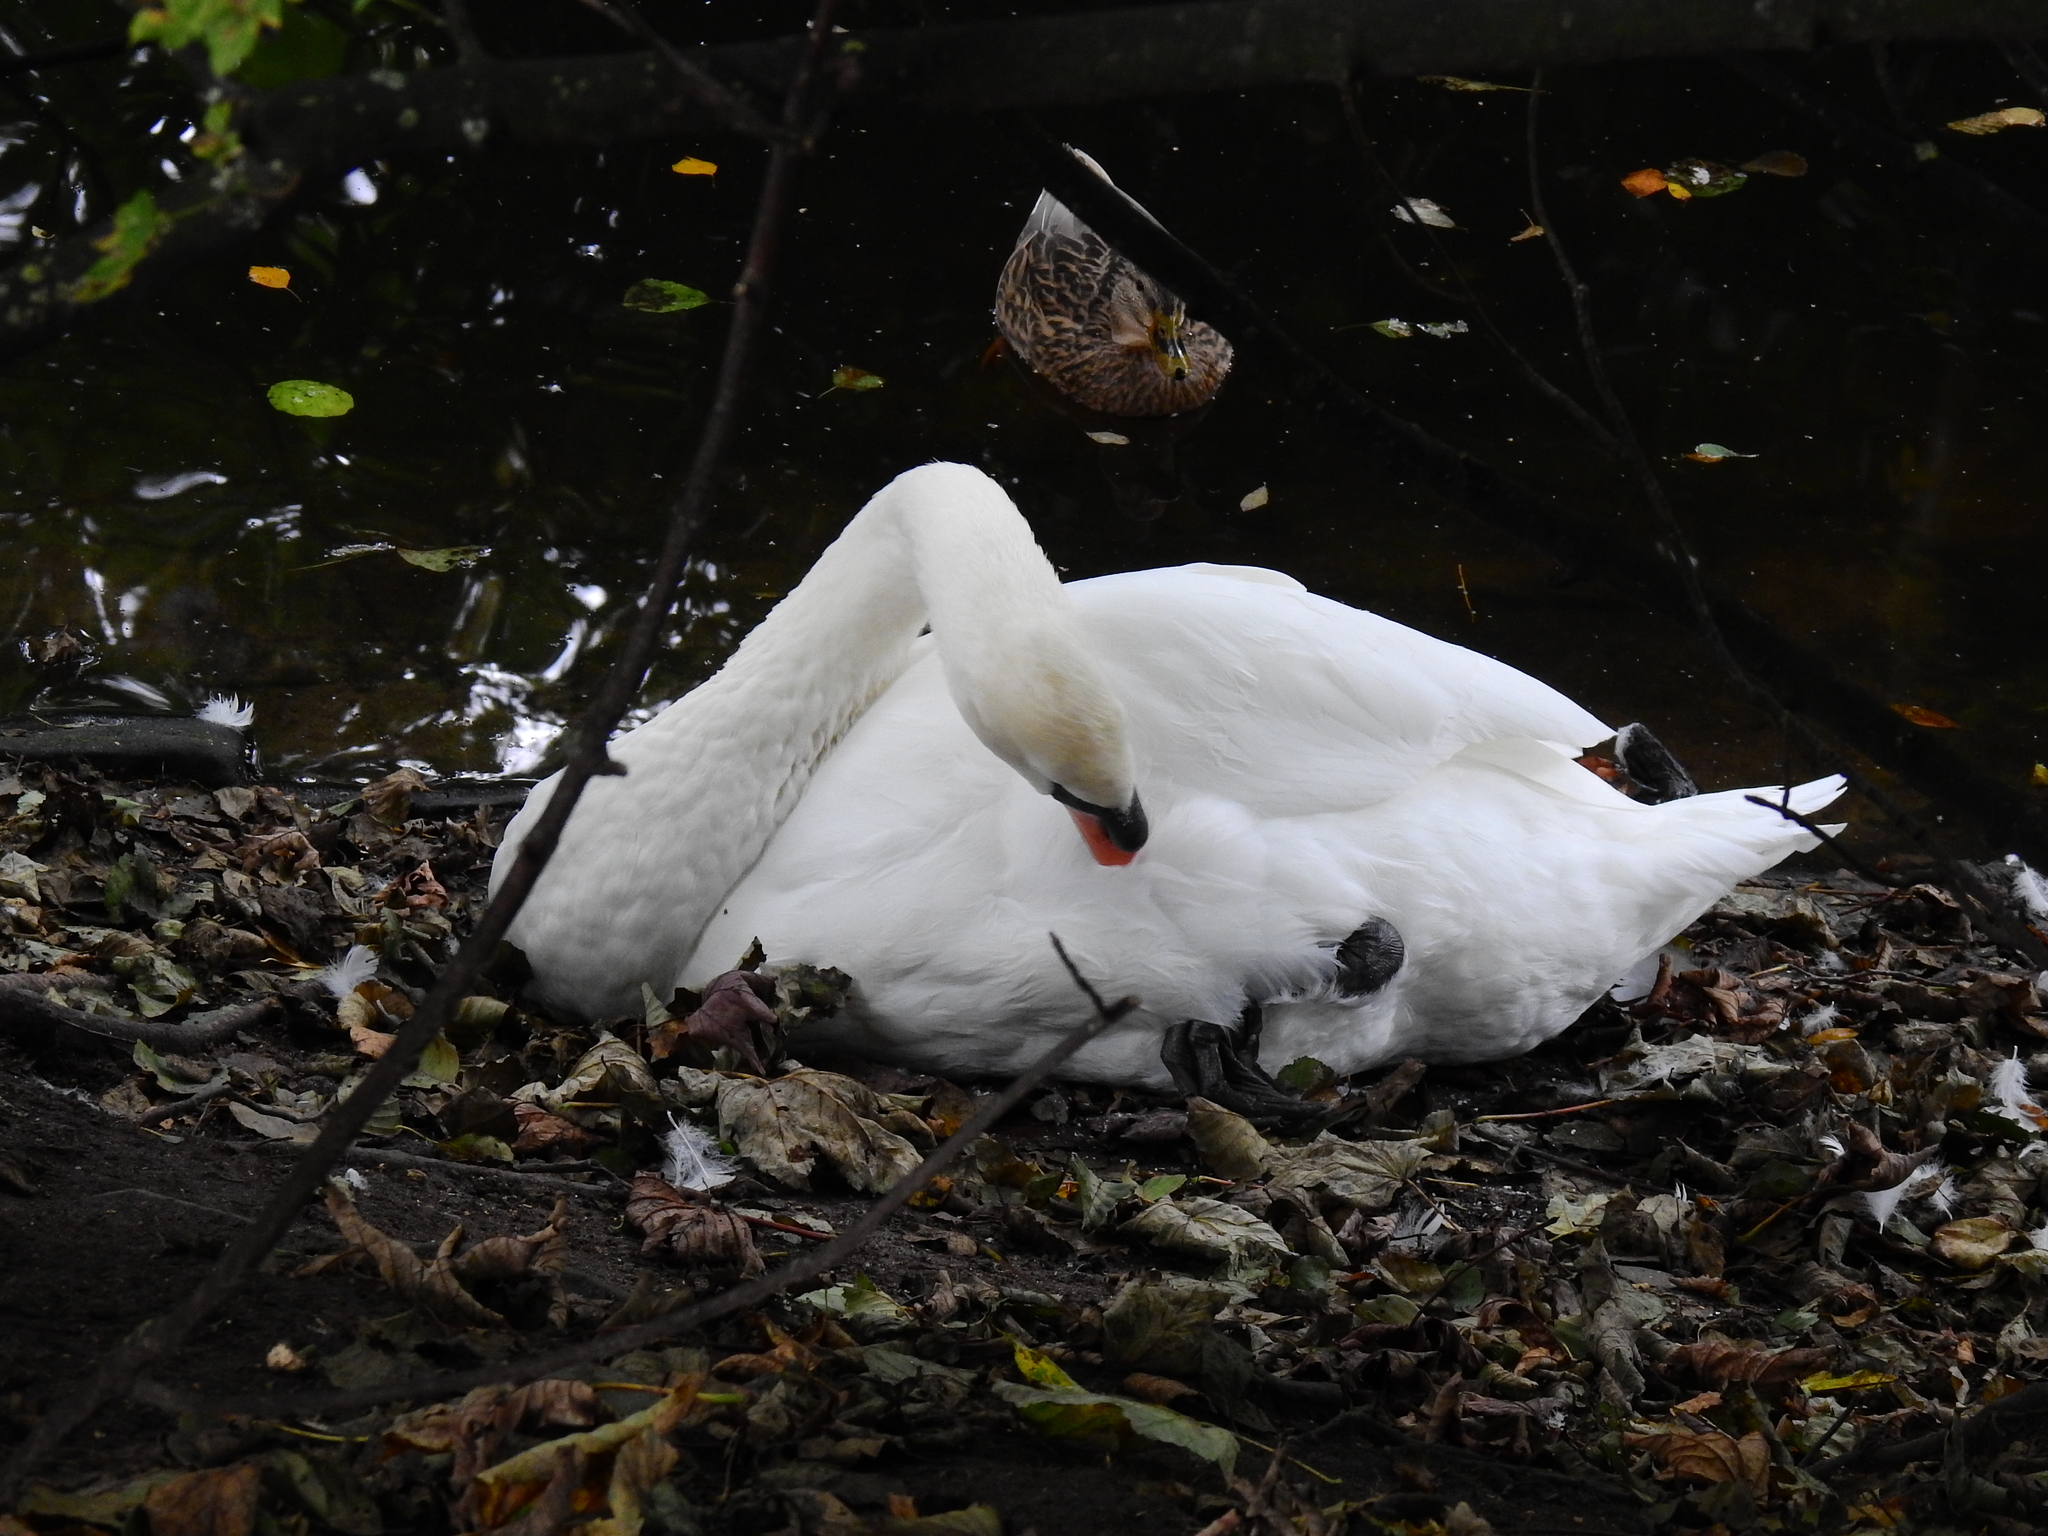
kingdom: Animalia
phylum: Chordata
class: Aves
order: Anseriformes
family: Anatidae
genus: Cygnus
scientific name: Cygnus olor
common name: Mute swan
